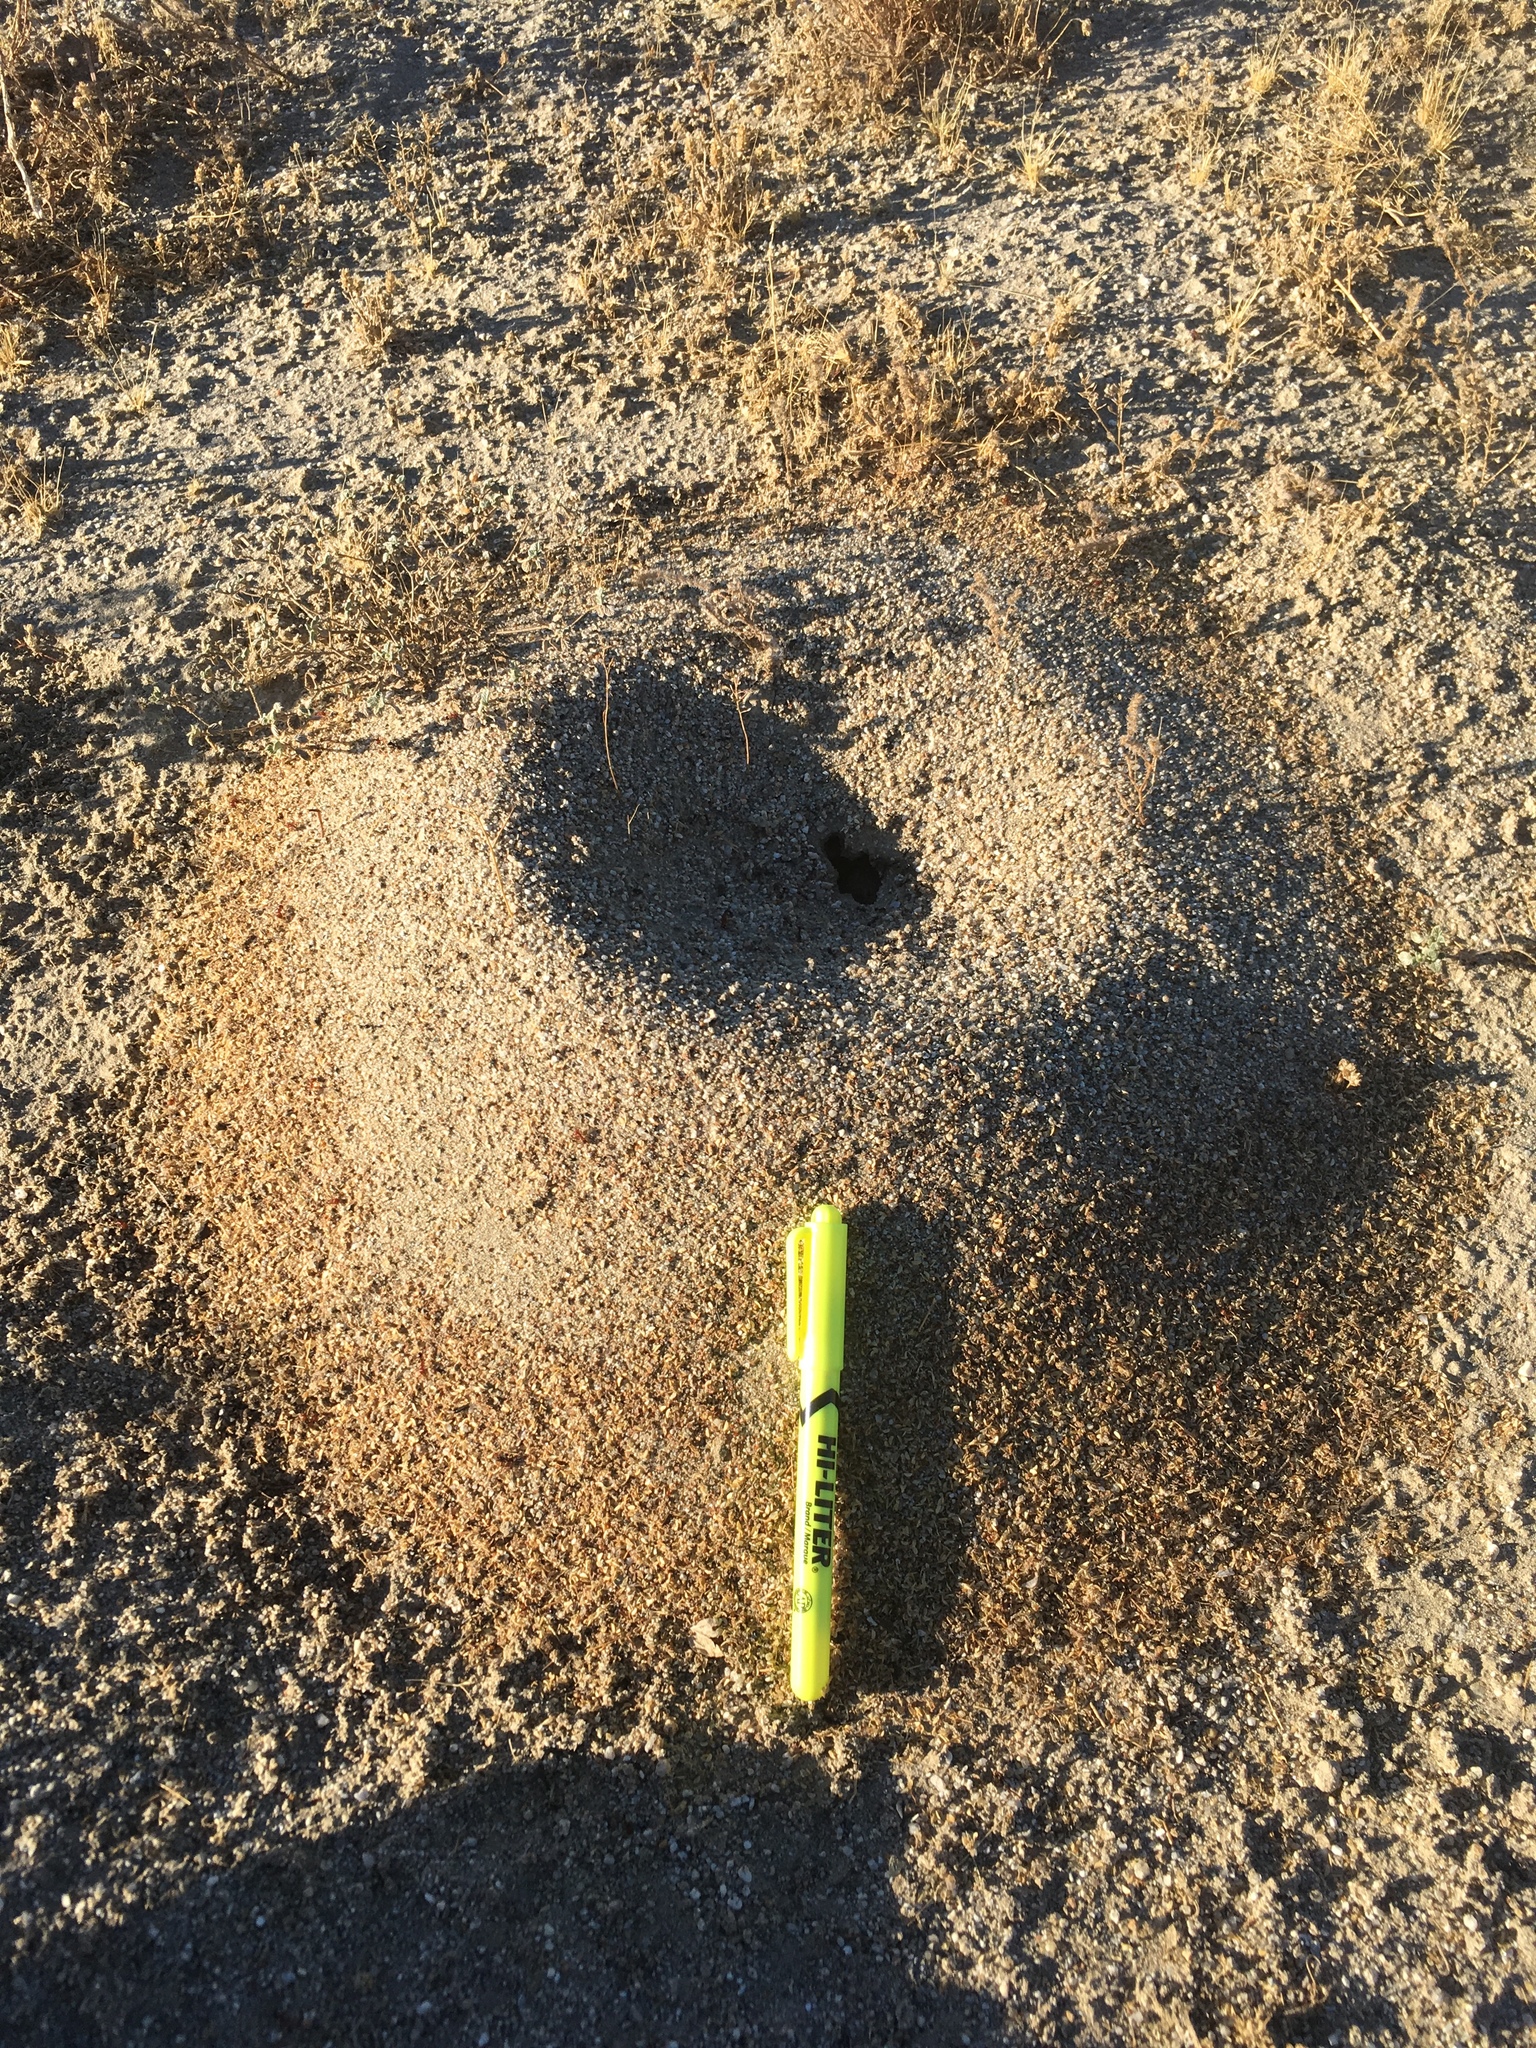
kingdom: Animalia
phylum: Arthropoda
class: Insecta
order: Hymenoptera
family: Formicidae
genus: Messor
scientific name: Messor pergandei
